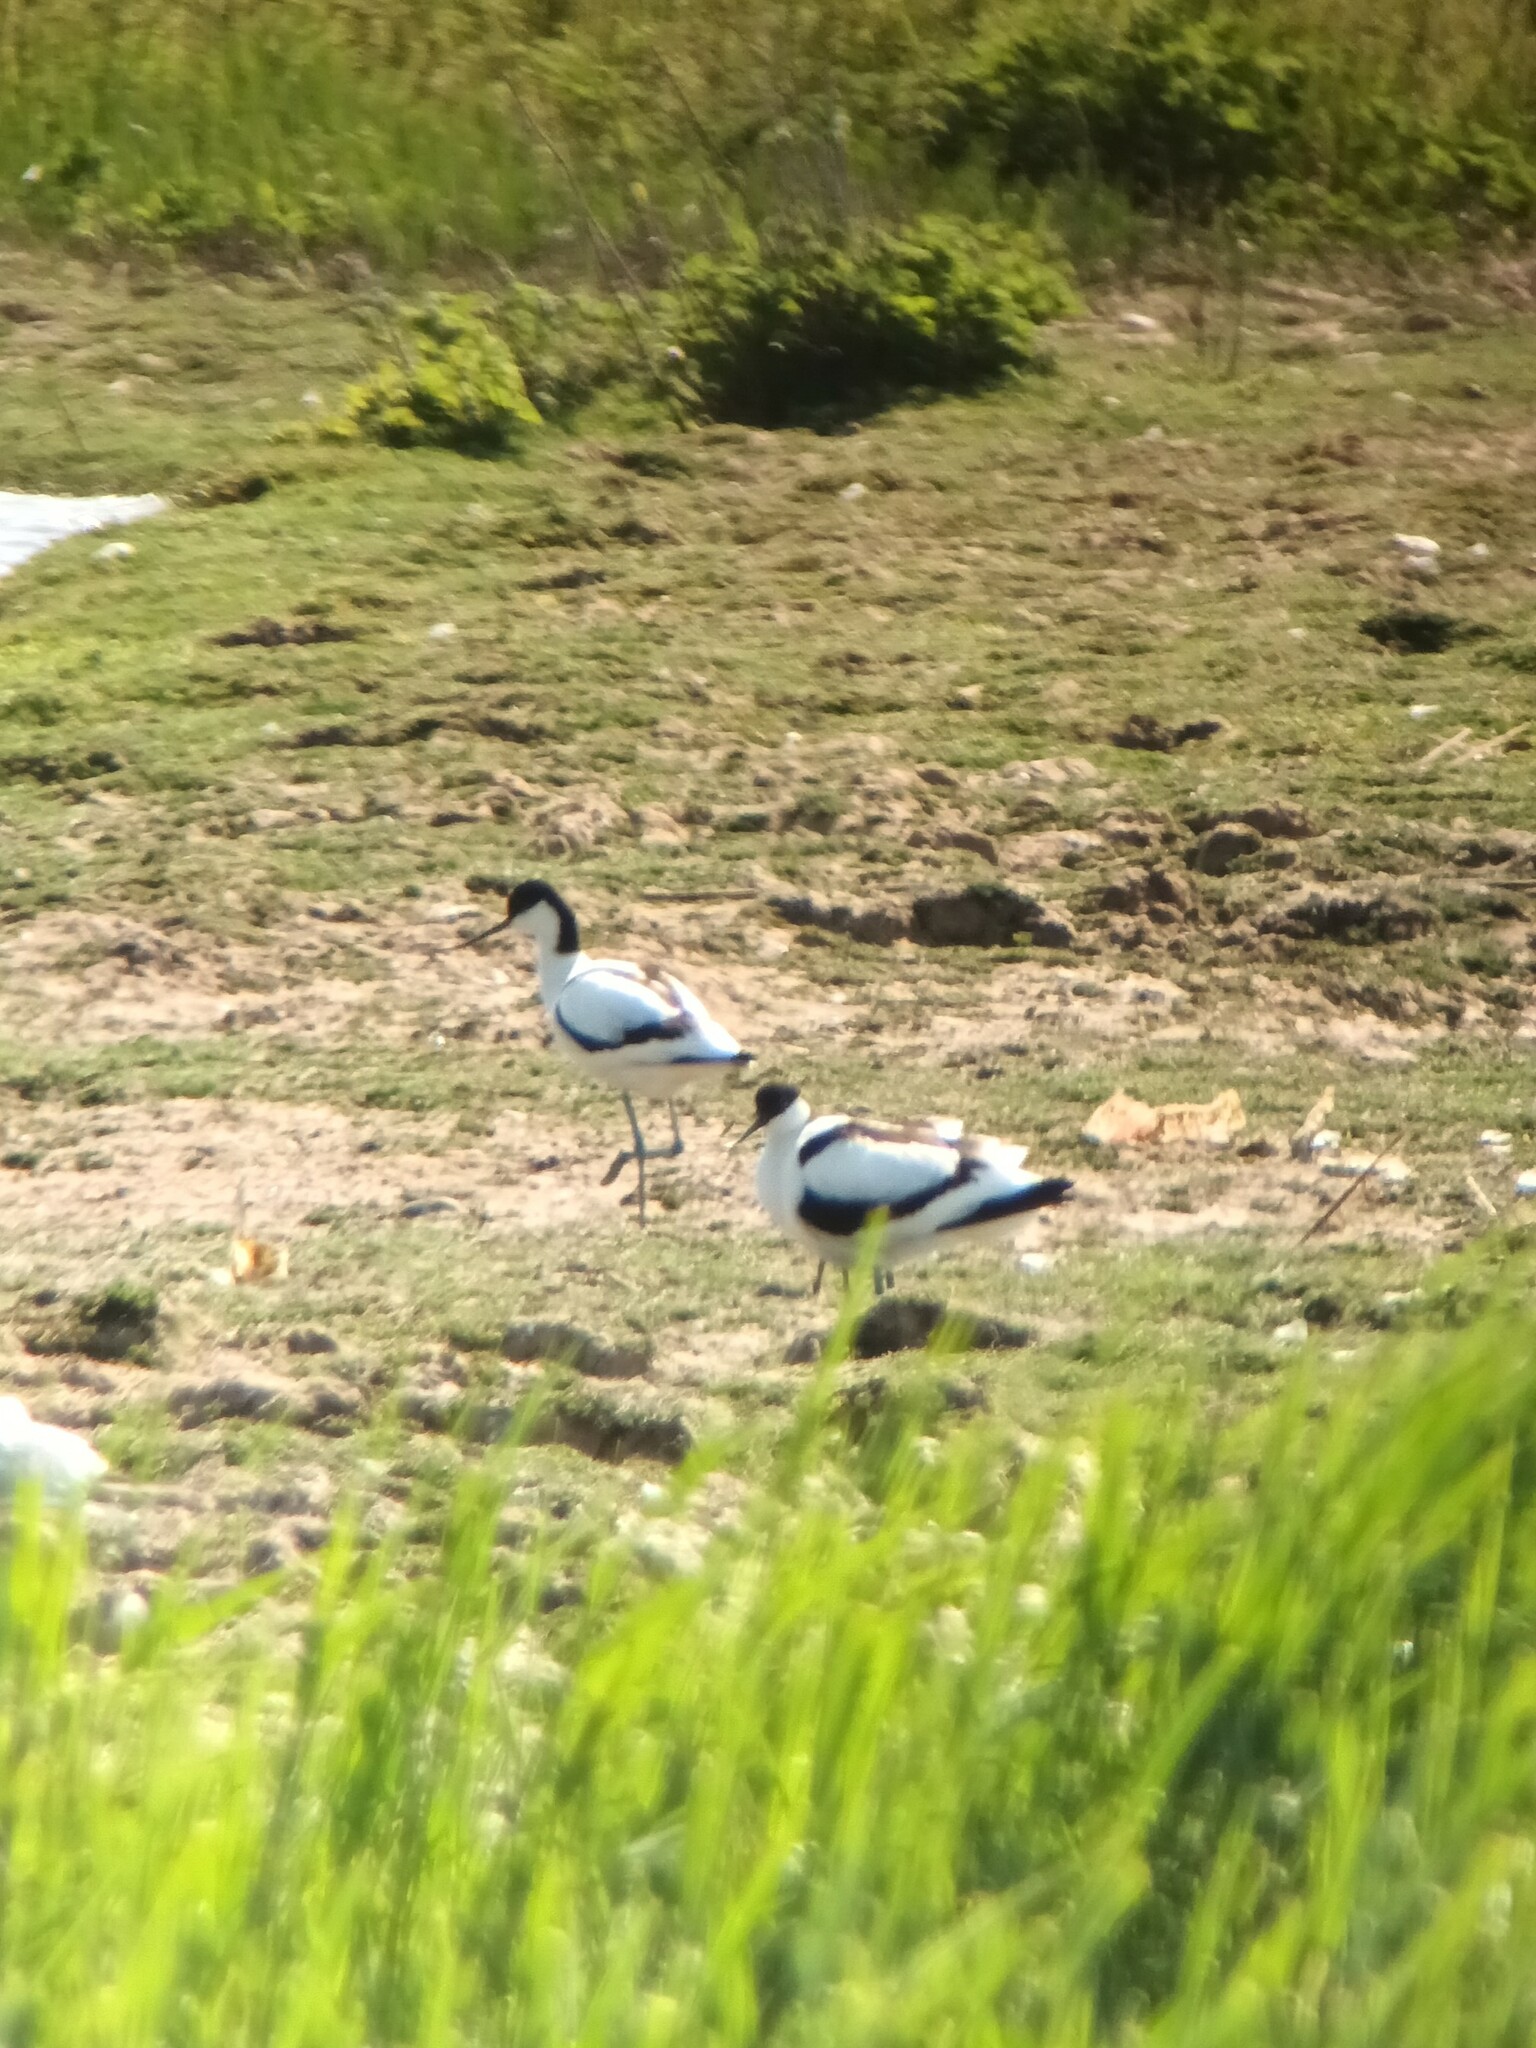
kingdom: Animalia
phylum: Chordata
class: Aves
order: Charadriiformes
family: Recurvirostridae
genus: Recurvirostra
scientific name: Recurvirostra avosetta
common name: Pied avocet
